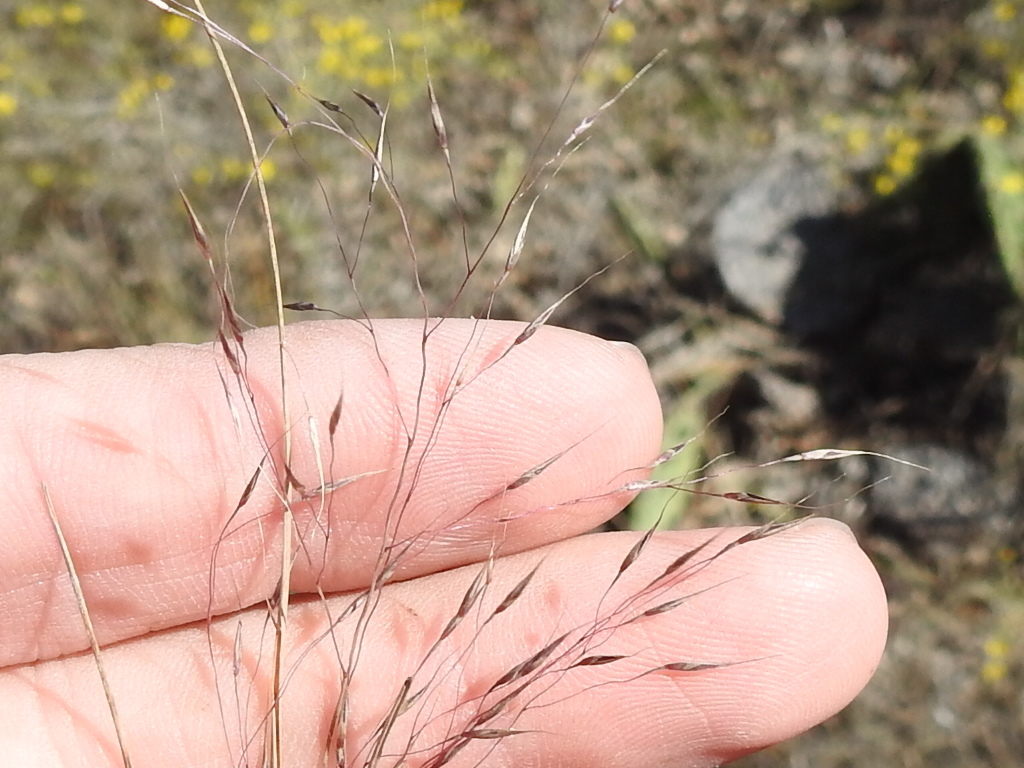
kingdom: Plantae
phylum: Tracheophyta
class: Liliopsida
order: Poales
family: Poaceae
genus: Muhlenbergia
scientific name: Muhlenbergia reverchonii
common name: Seep muhly
